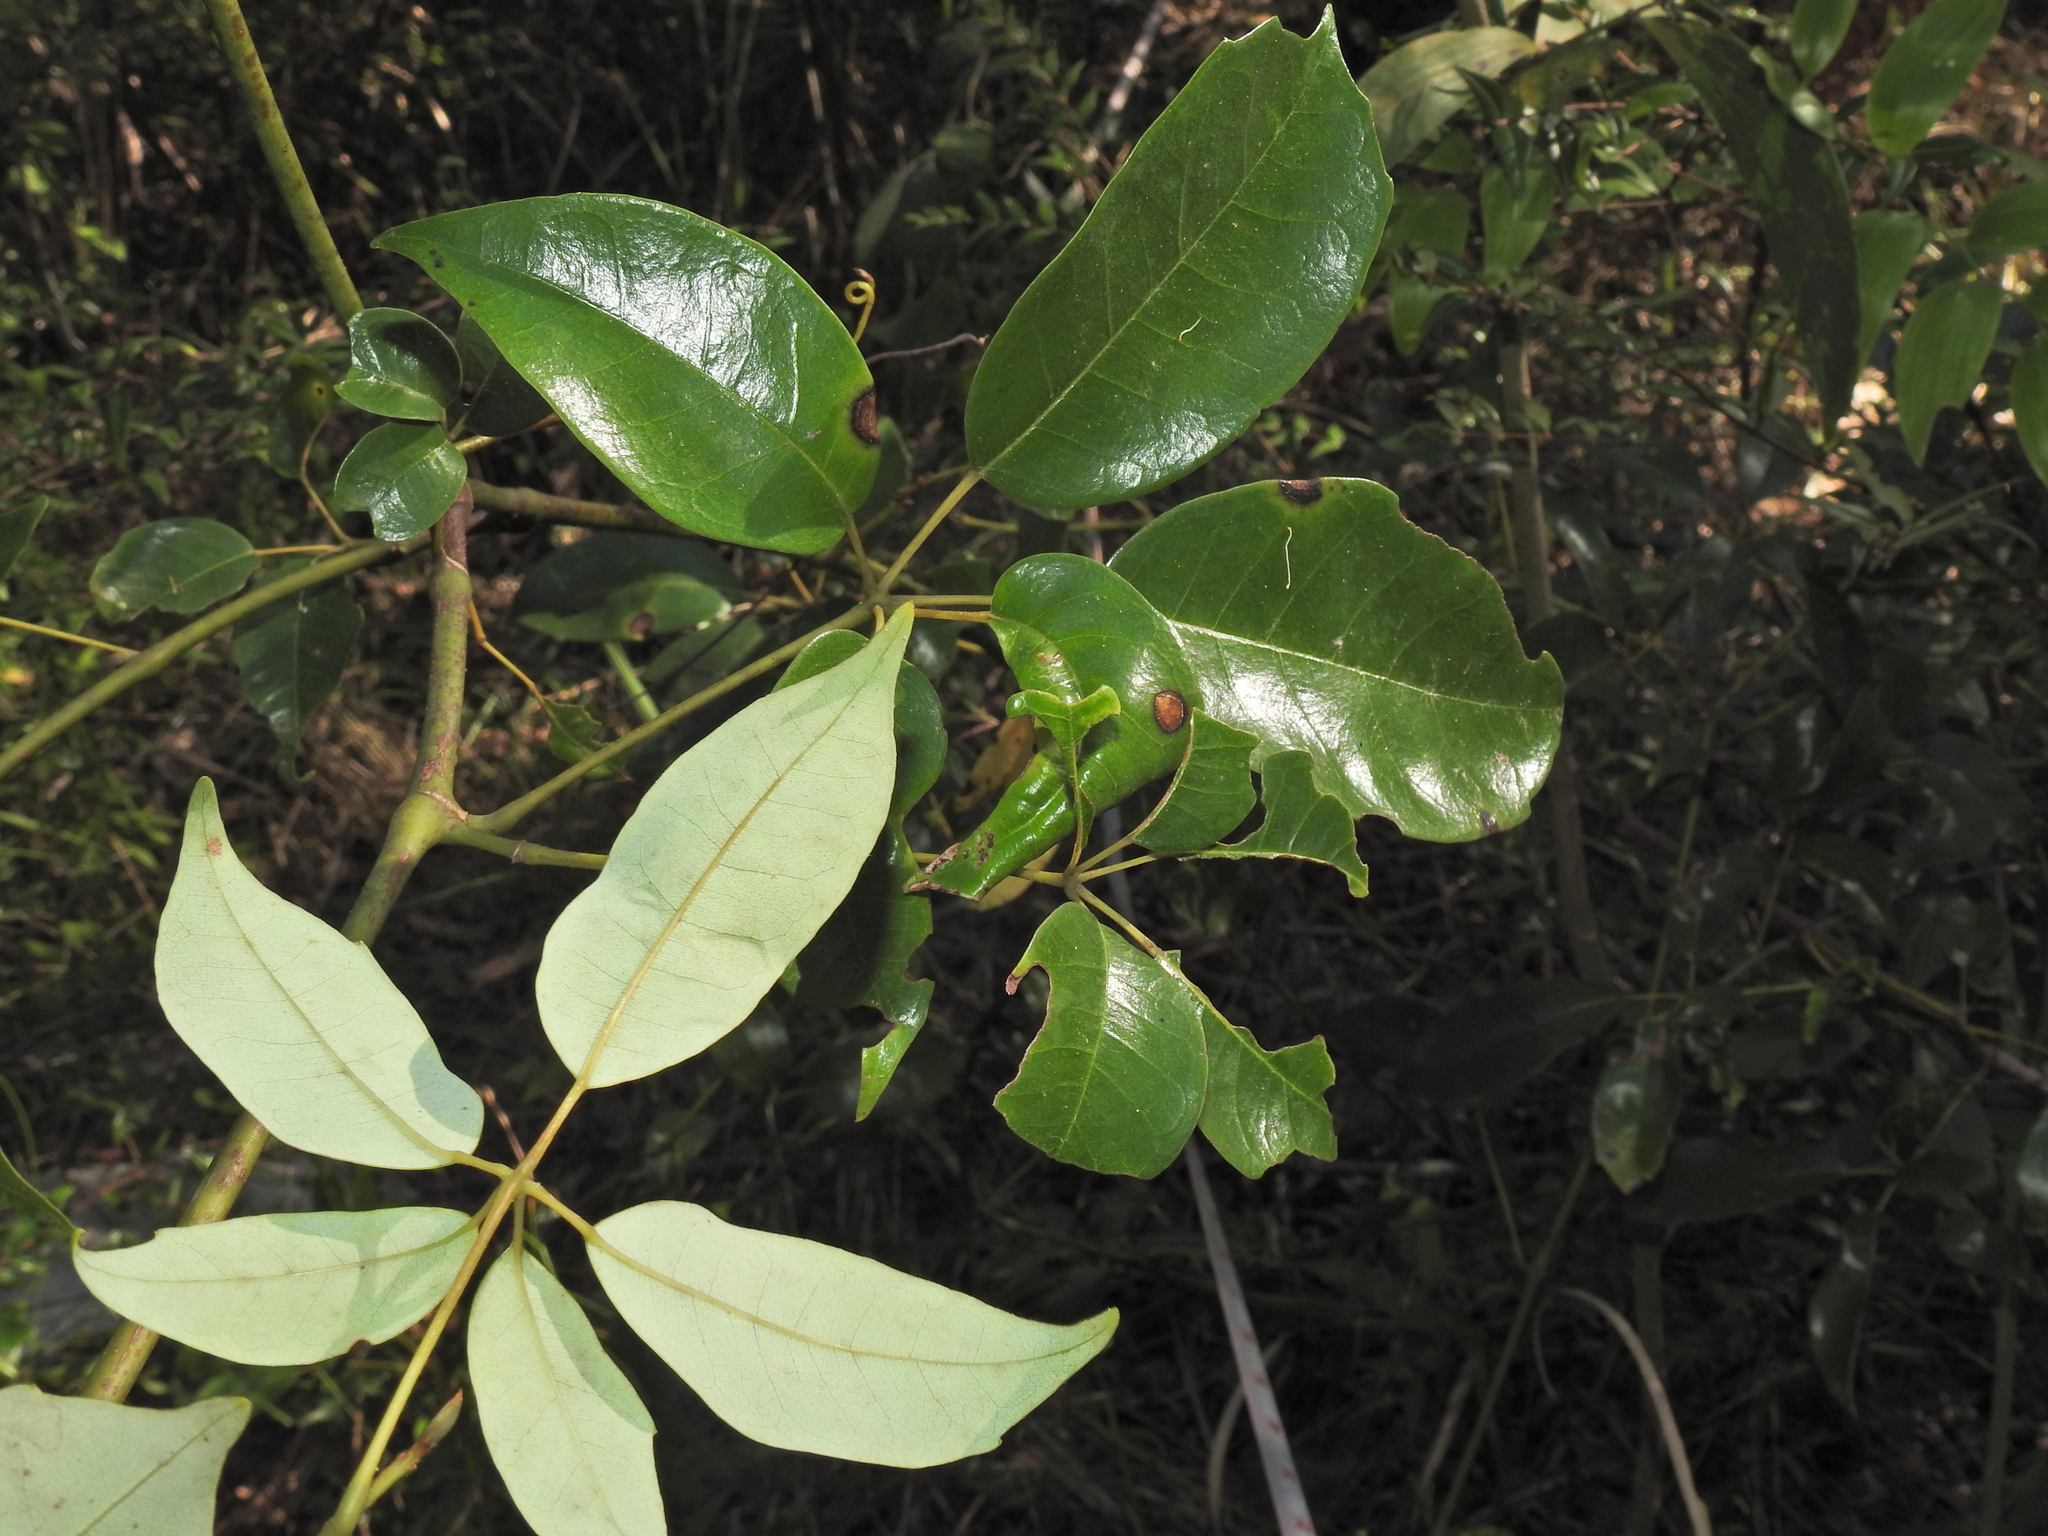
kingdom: Plantae
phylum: Tracheophyta
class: Magnoliopsida
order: Vitales
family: Vitaceae
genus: Nothocissus
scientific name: Nothocissus hypoglauca
